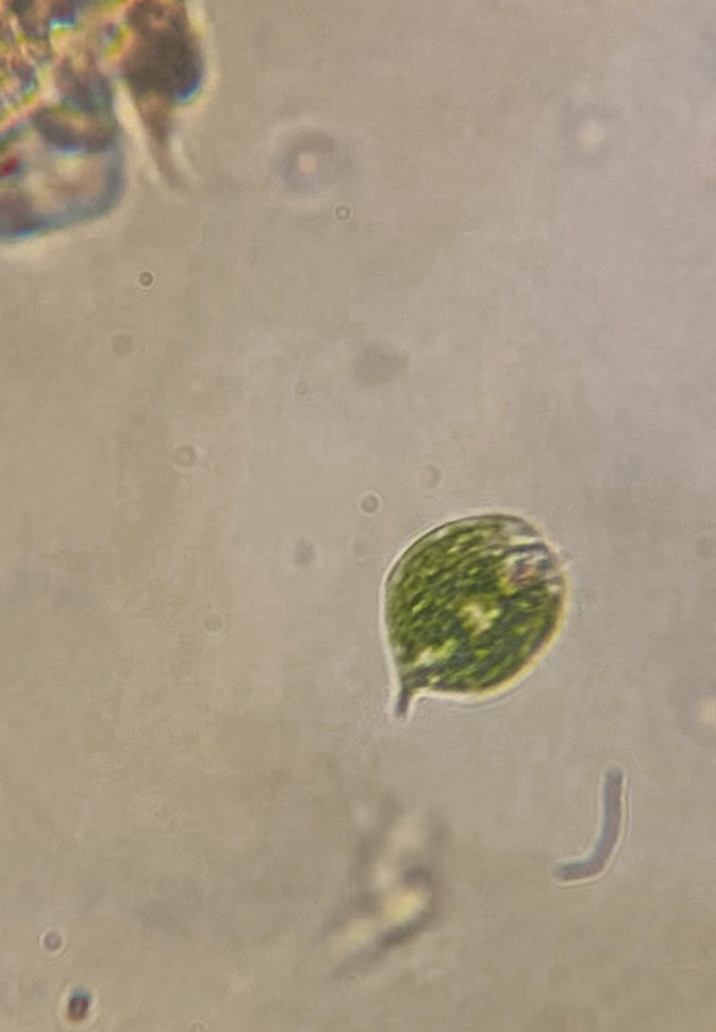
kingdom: Protozoa
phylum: Euglenozoa
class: Euglenoidea
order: Euglenida
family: Phacidae
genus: Phacus
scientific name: Phacus circulatus
